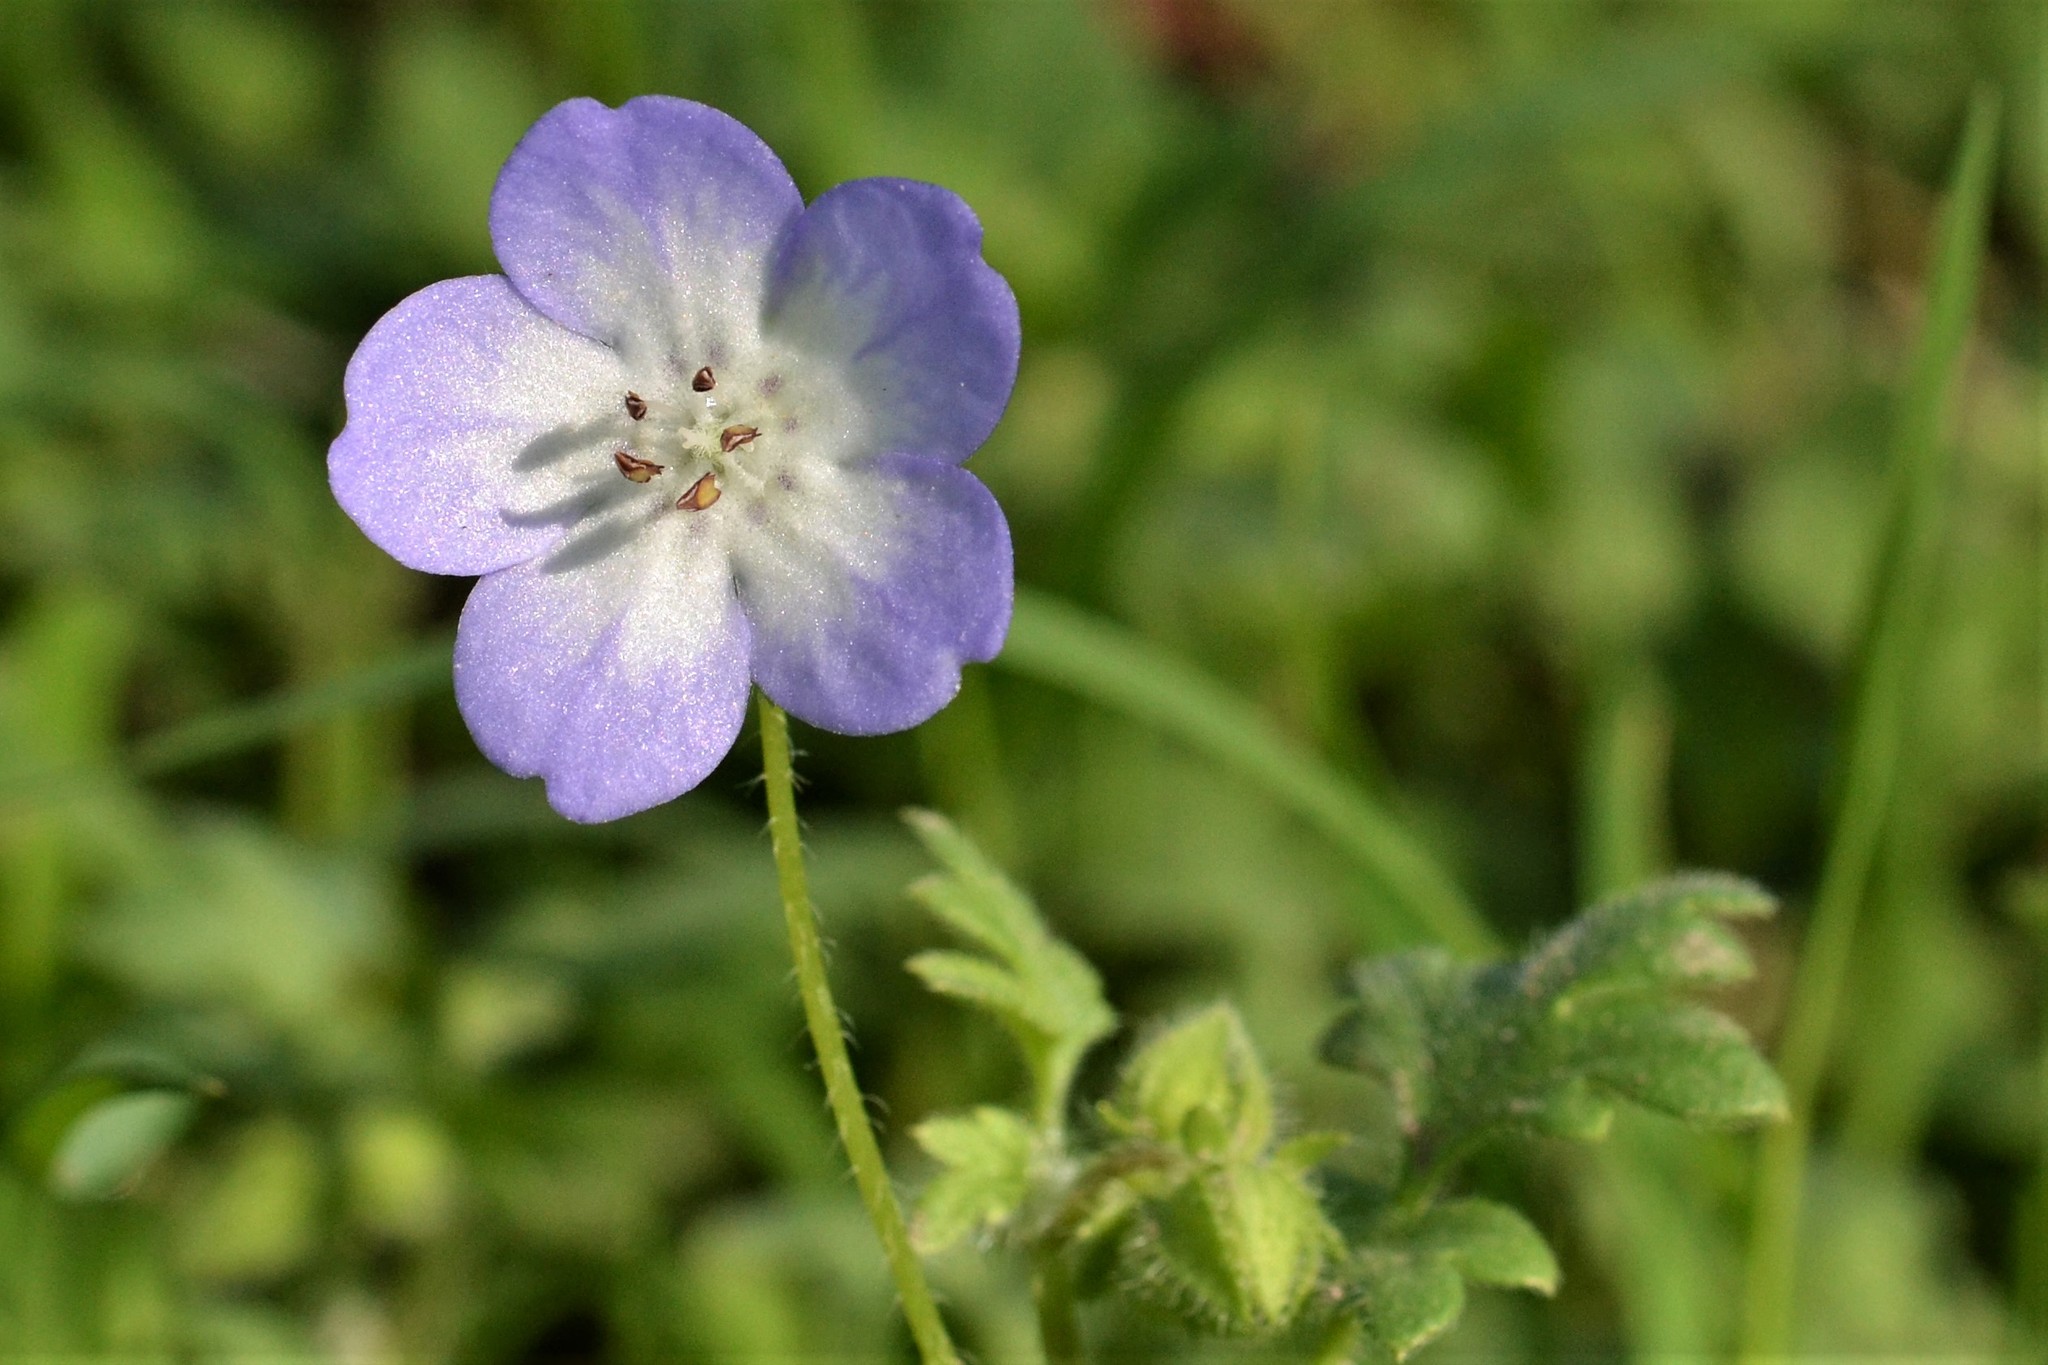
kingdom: Plantae
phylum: Tracheophyta
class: Magnoliopsida
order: Boraginales
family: Hydrophyllaceae
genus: Nemophila
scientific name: Nemophila phacelioides
